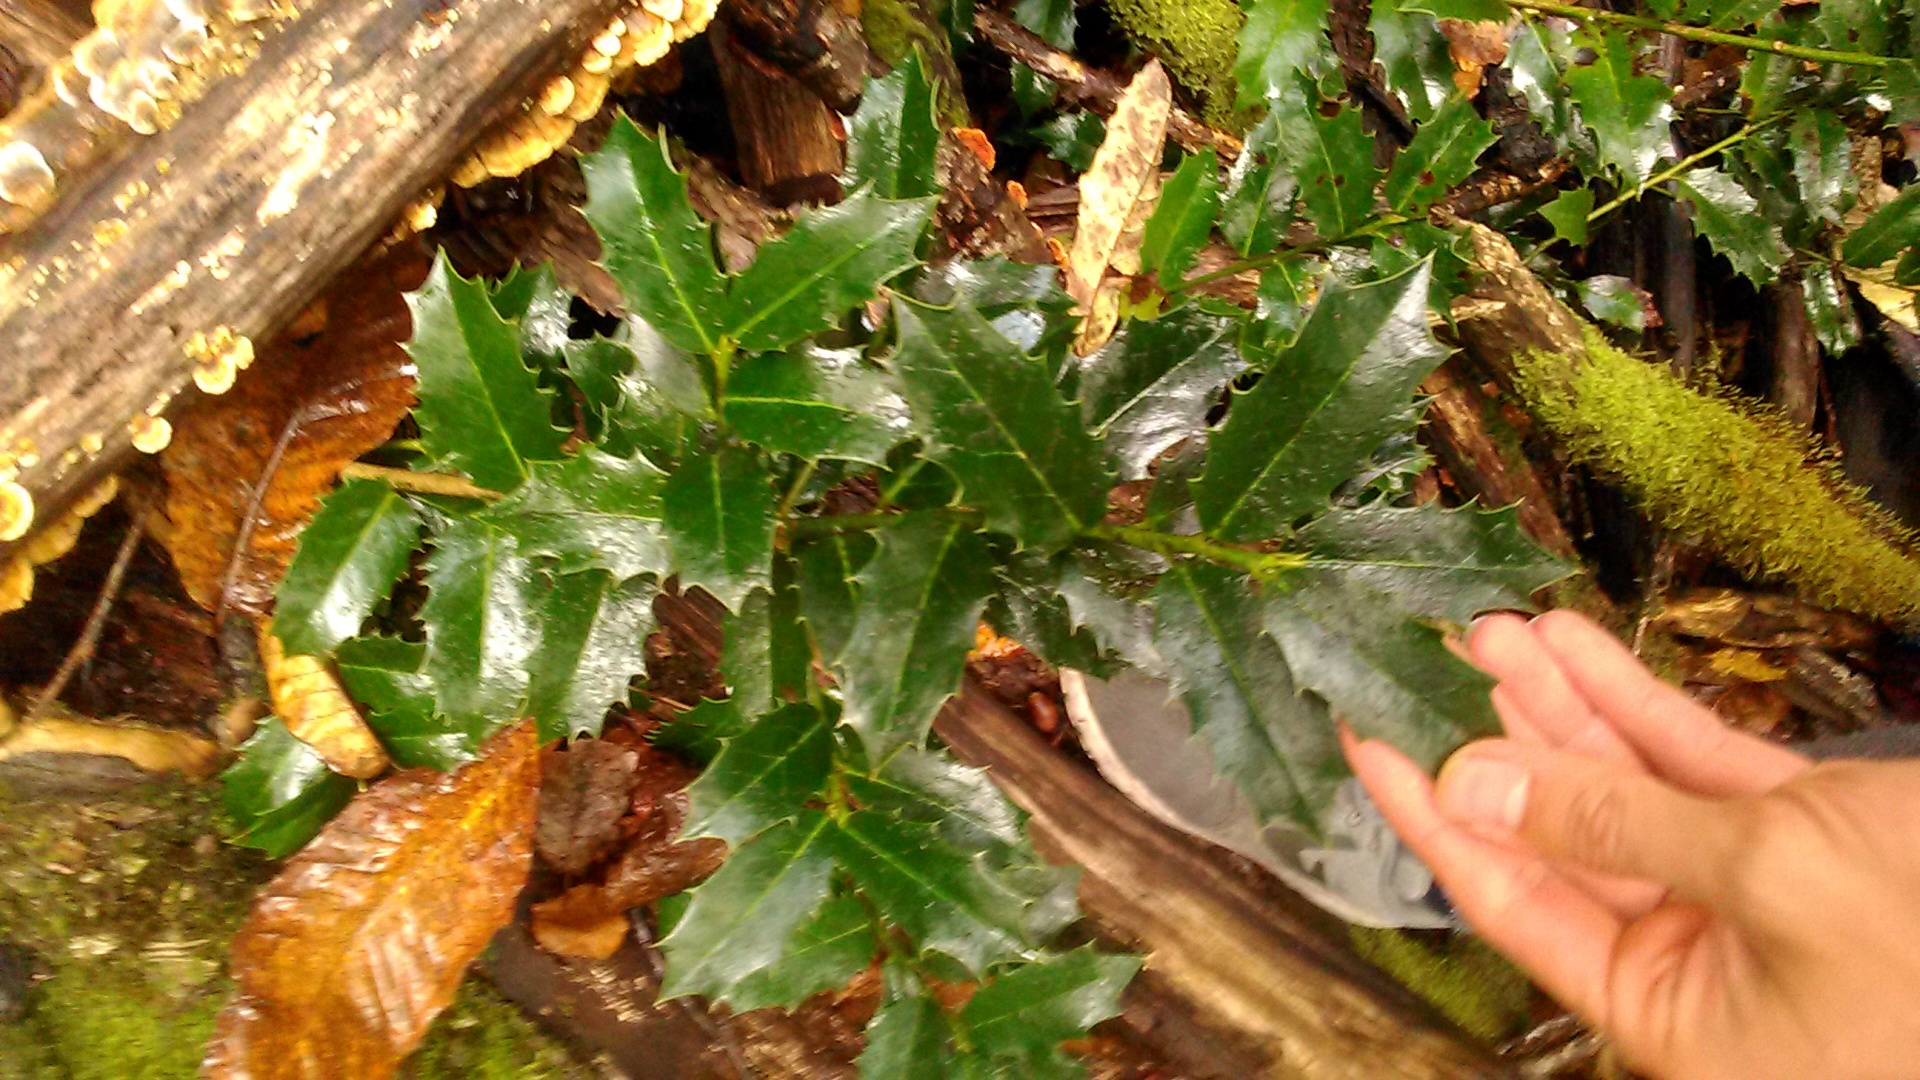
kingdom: Plantae
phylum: Tracheophyta
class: Magnoliopsida
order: Aquifoliales
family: Aquifoliaceae
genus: Ilex
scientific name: Ilex colchica
